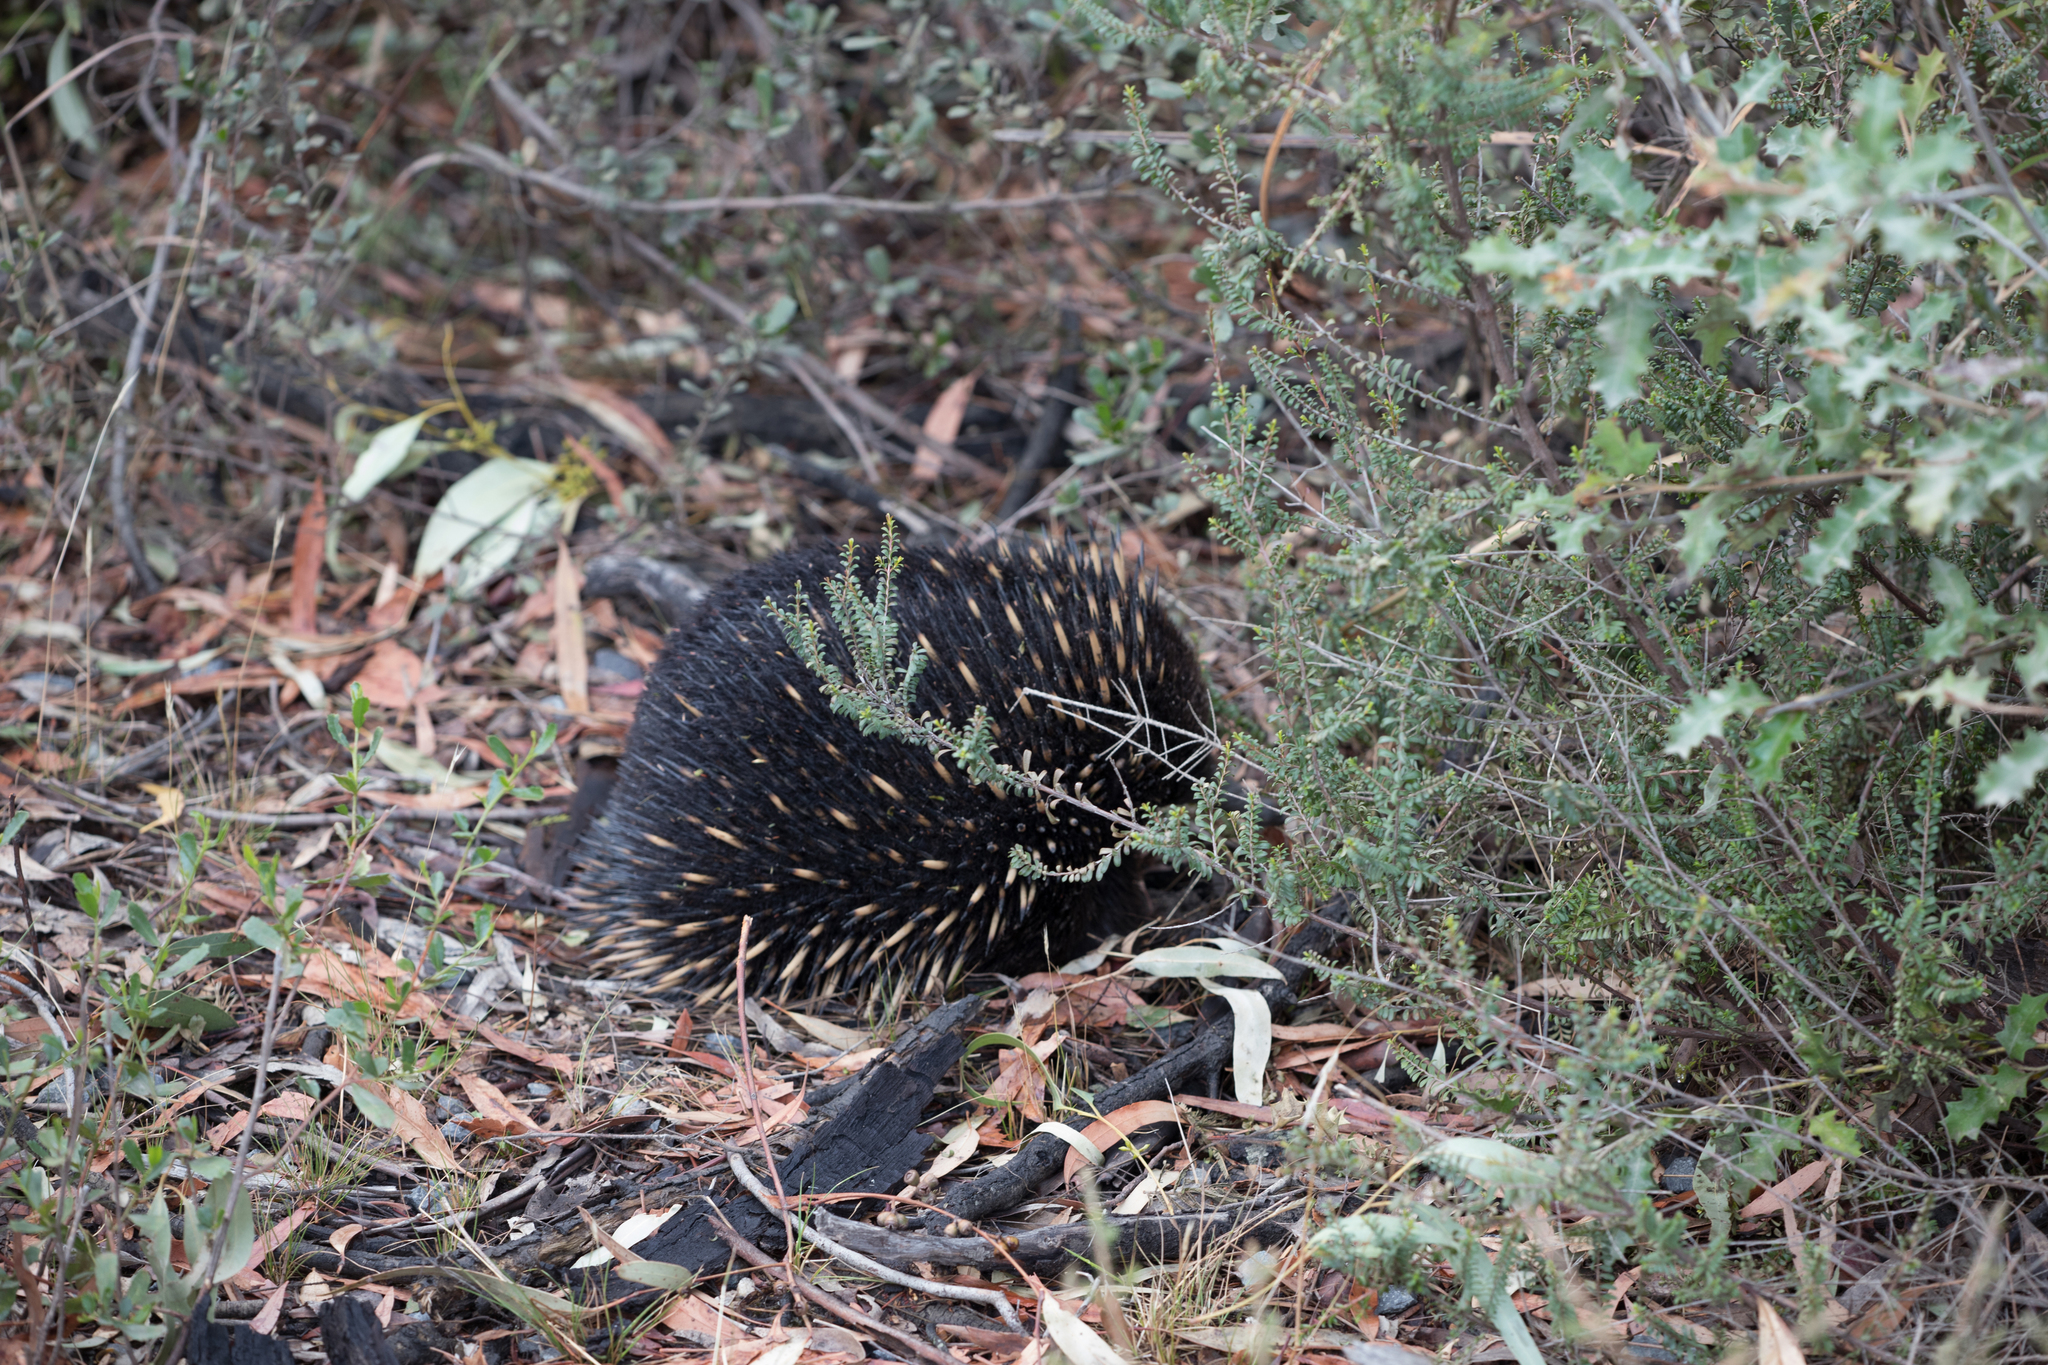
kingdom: Animalia
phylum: Chordata
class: Mammalia
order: Monotremata
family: Tachyglossidae
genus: Tachyglossus
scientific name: Tachyglossus aculeatus
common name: Short-beaked echidna
